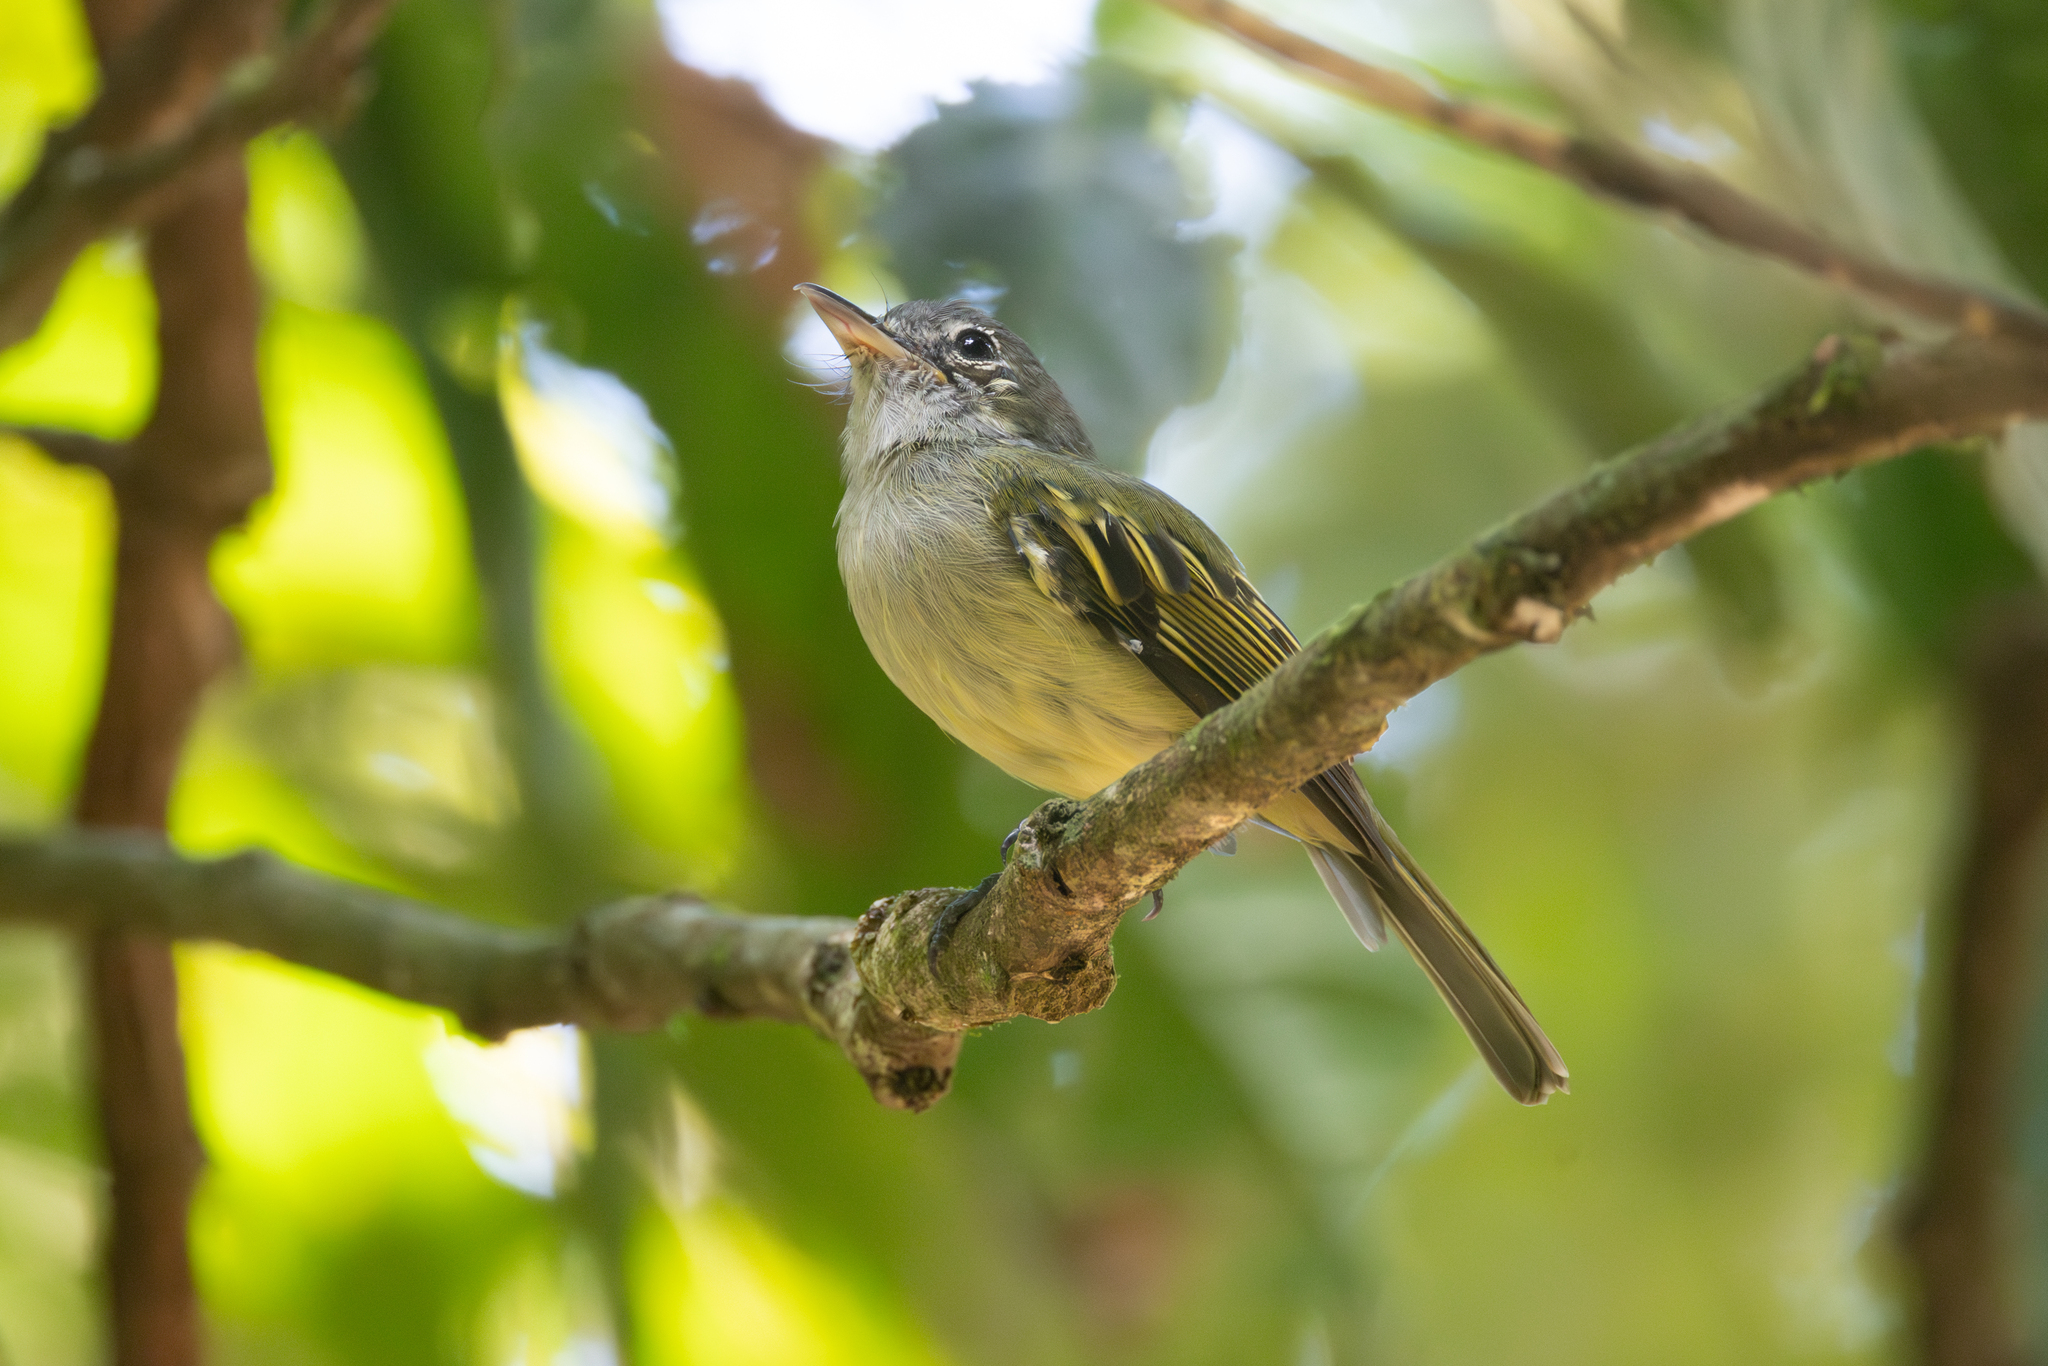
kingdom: Animalia
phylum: Chordata
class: Aves
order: Passeriformes
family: Tyrannidae
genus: Tolmomyias
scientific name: Tolmomyias assimilis
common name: Yellow-margined flycatcher
